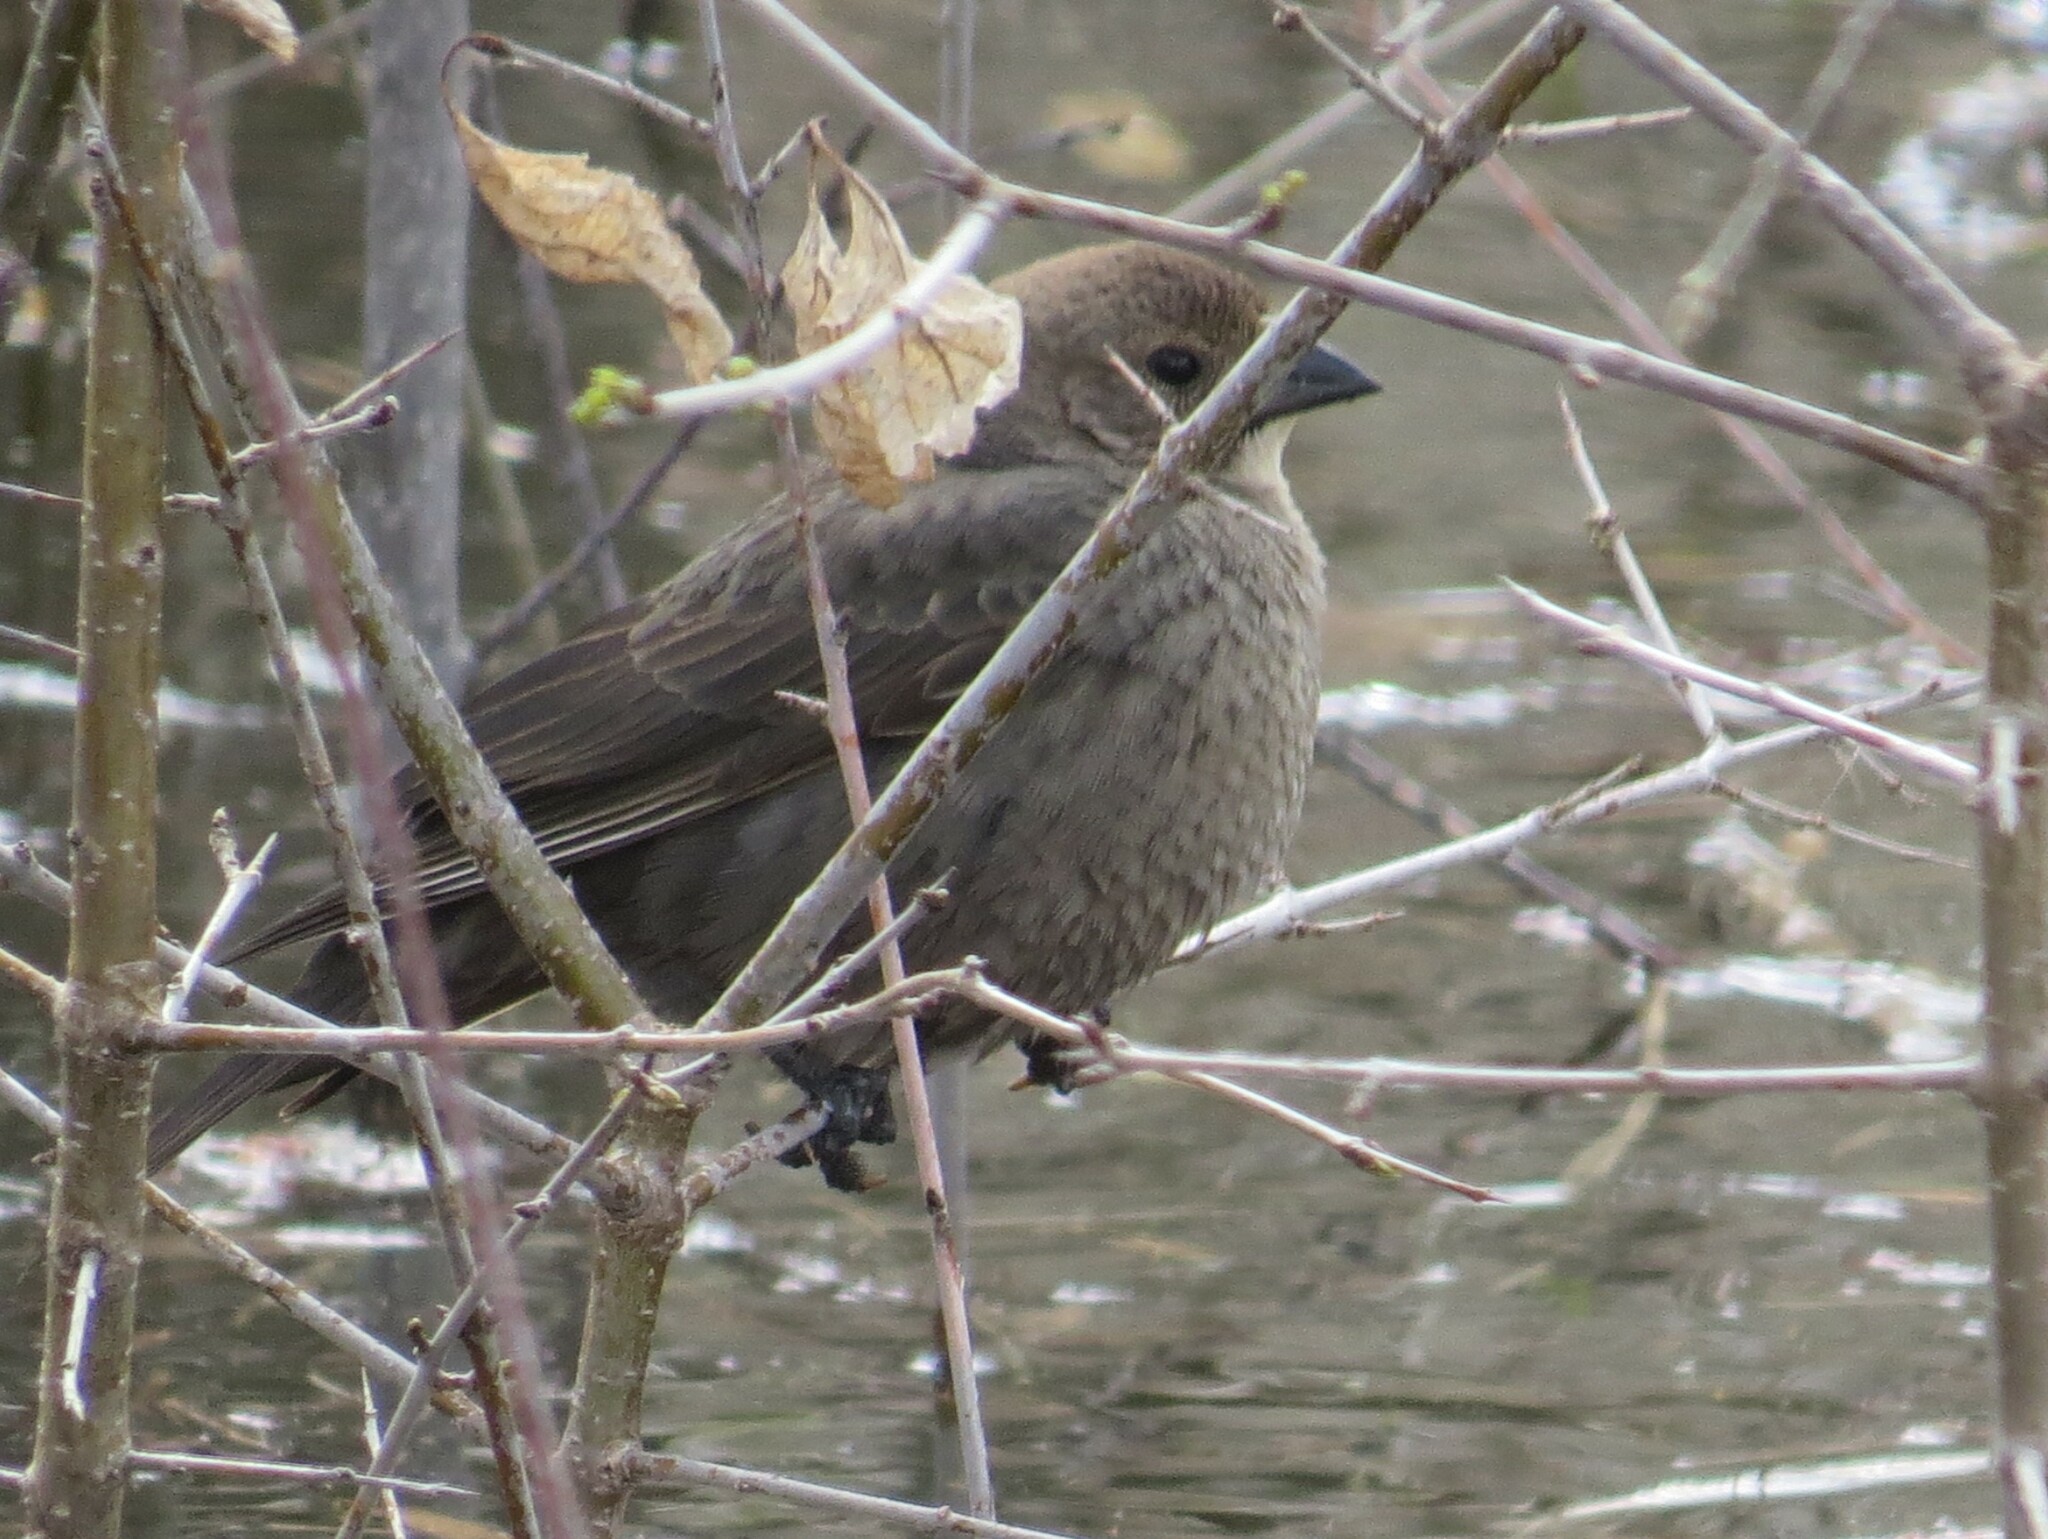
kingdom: Animalia
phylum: Chordata
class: Aves
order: Passeriformes
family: Icteridae
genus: Molothrus
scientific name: Molothrus ater
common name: Brown-headed cowbird
